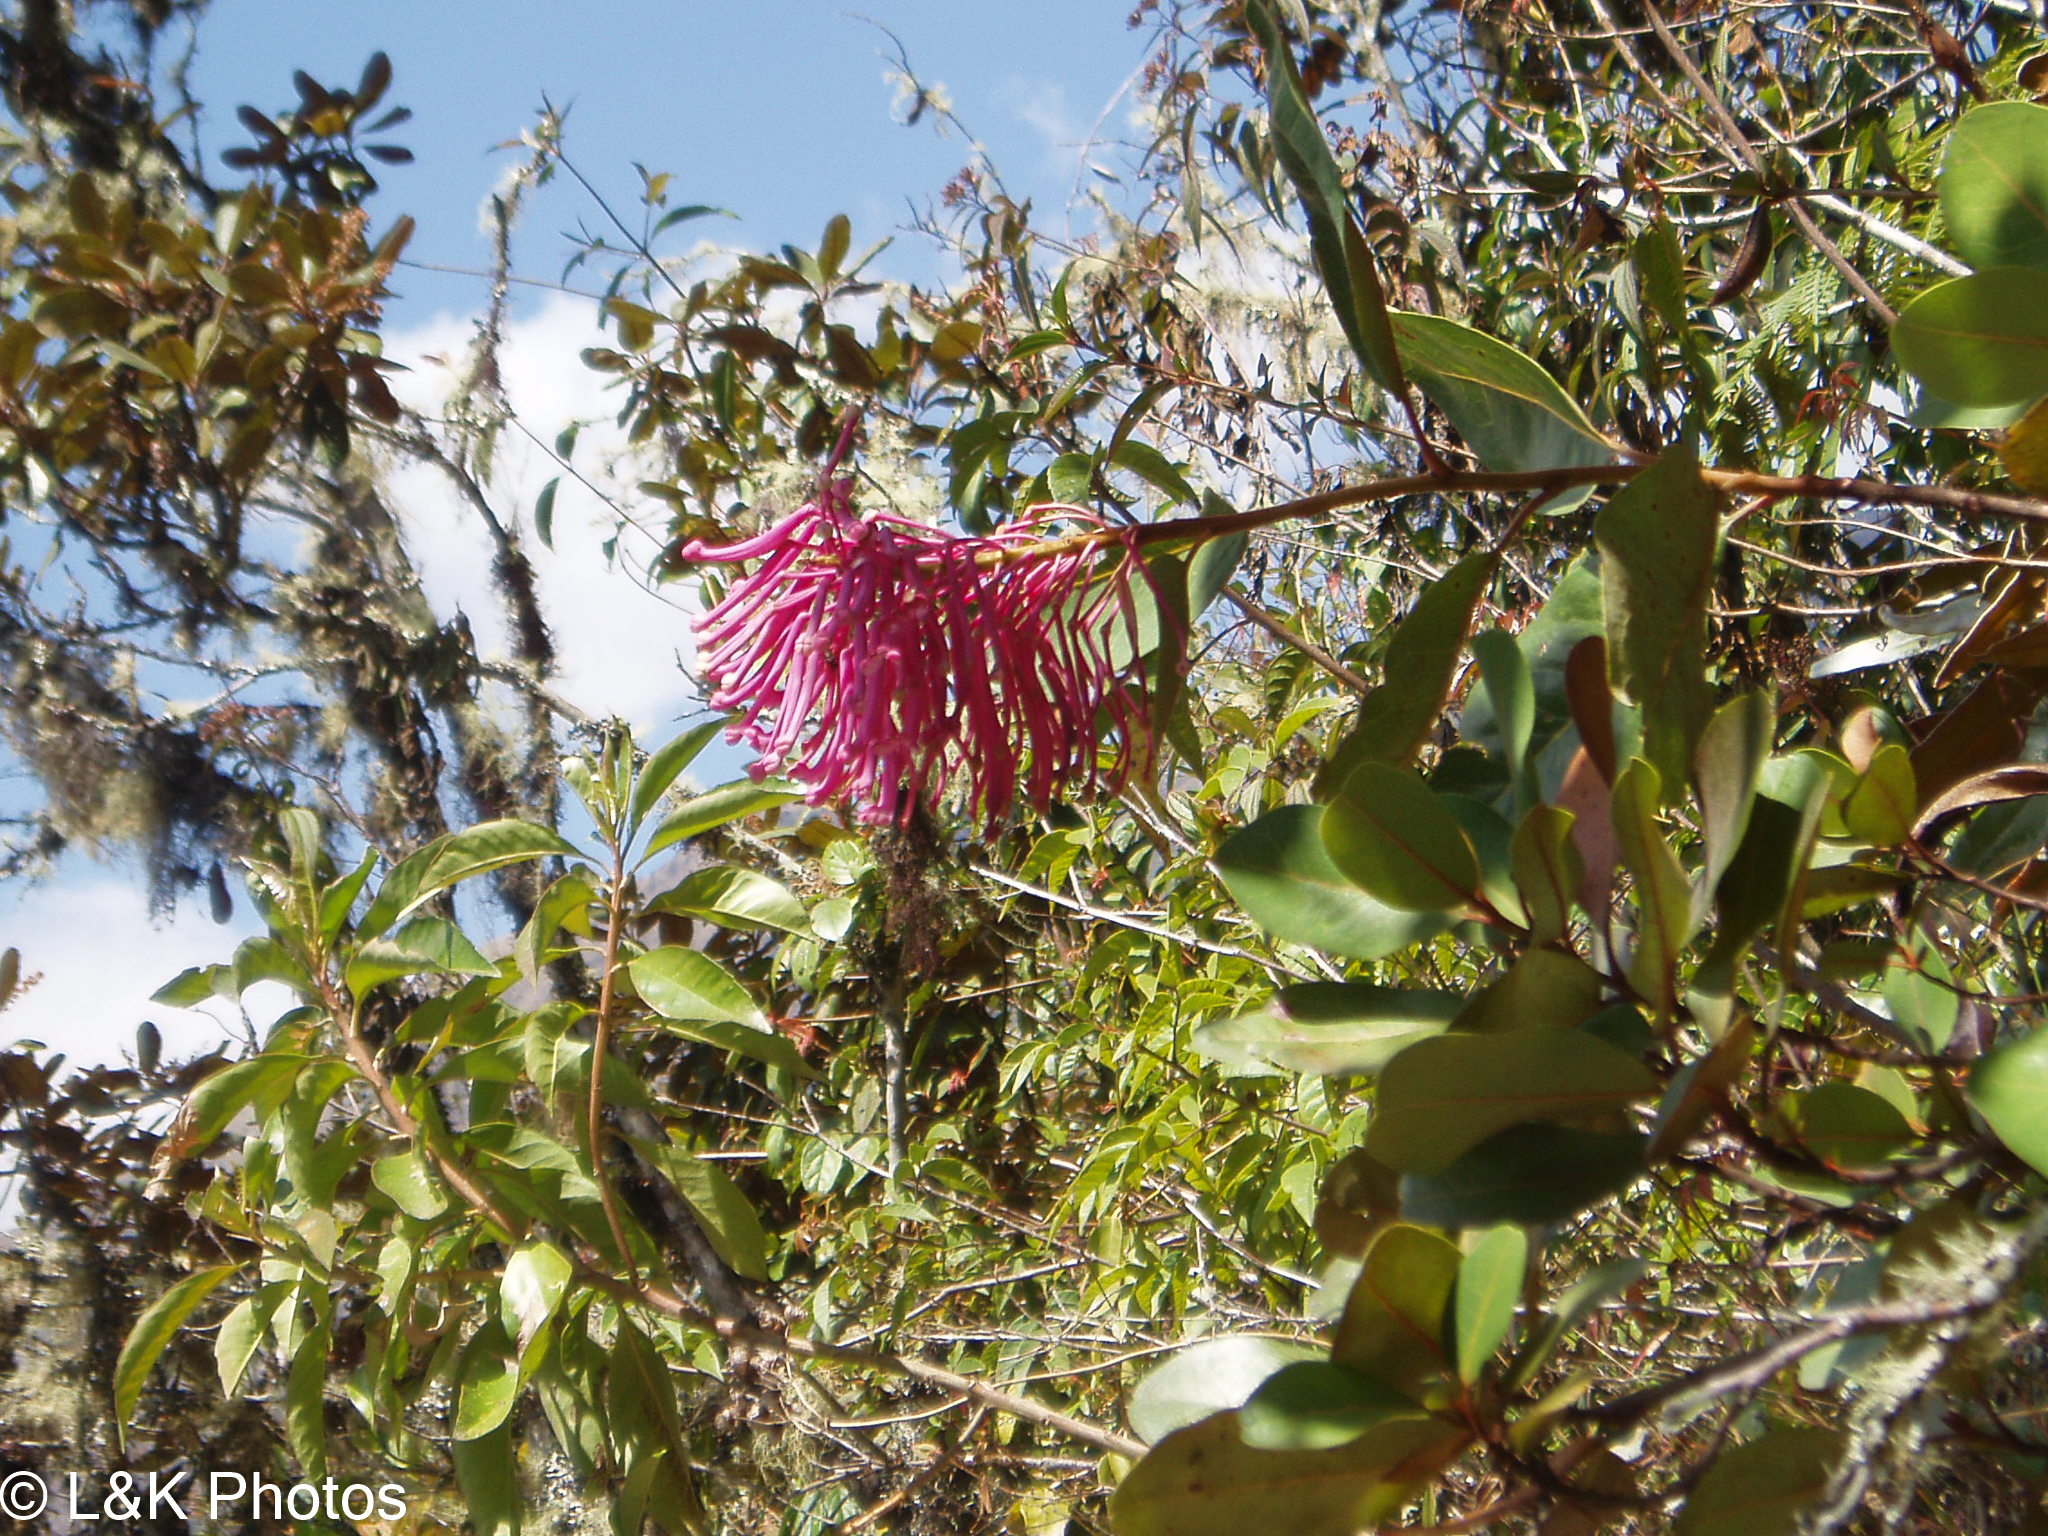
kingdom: Plantae
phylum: Tracheophyta
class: Magnoliopsida
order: Proteales
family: Proteaceae
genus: Oreocallis
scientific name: Oreocallis grandiflora
